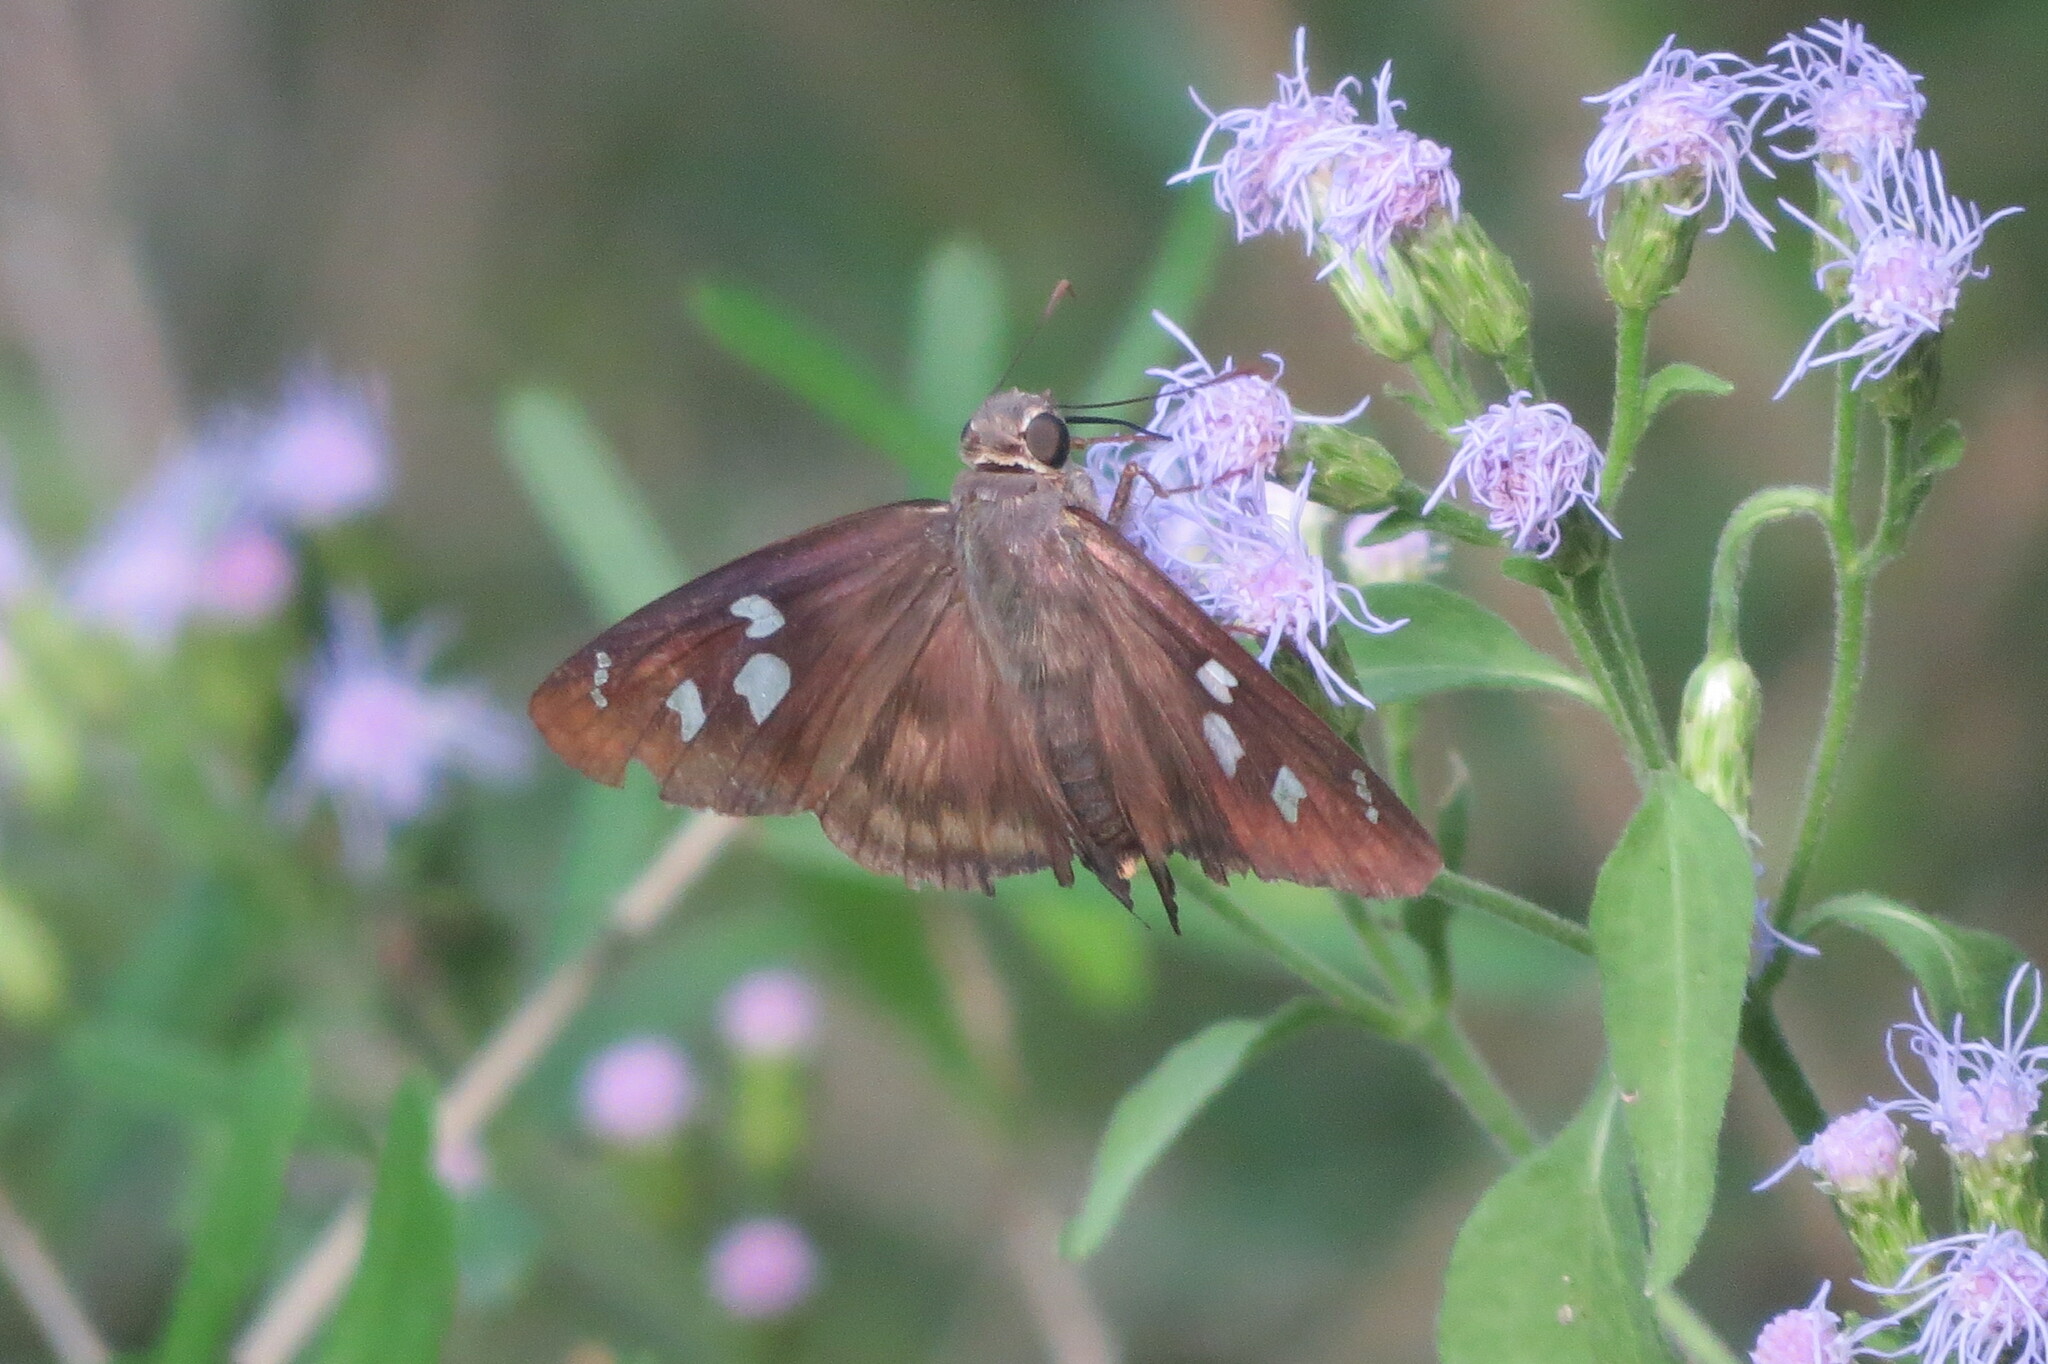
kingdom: Animalia
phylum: Arthropoda
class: Insecta
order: Lepidoptera
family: Hesperiidae
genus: Polygonus
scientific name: Polygonus leo
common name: Hammoch skipper
